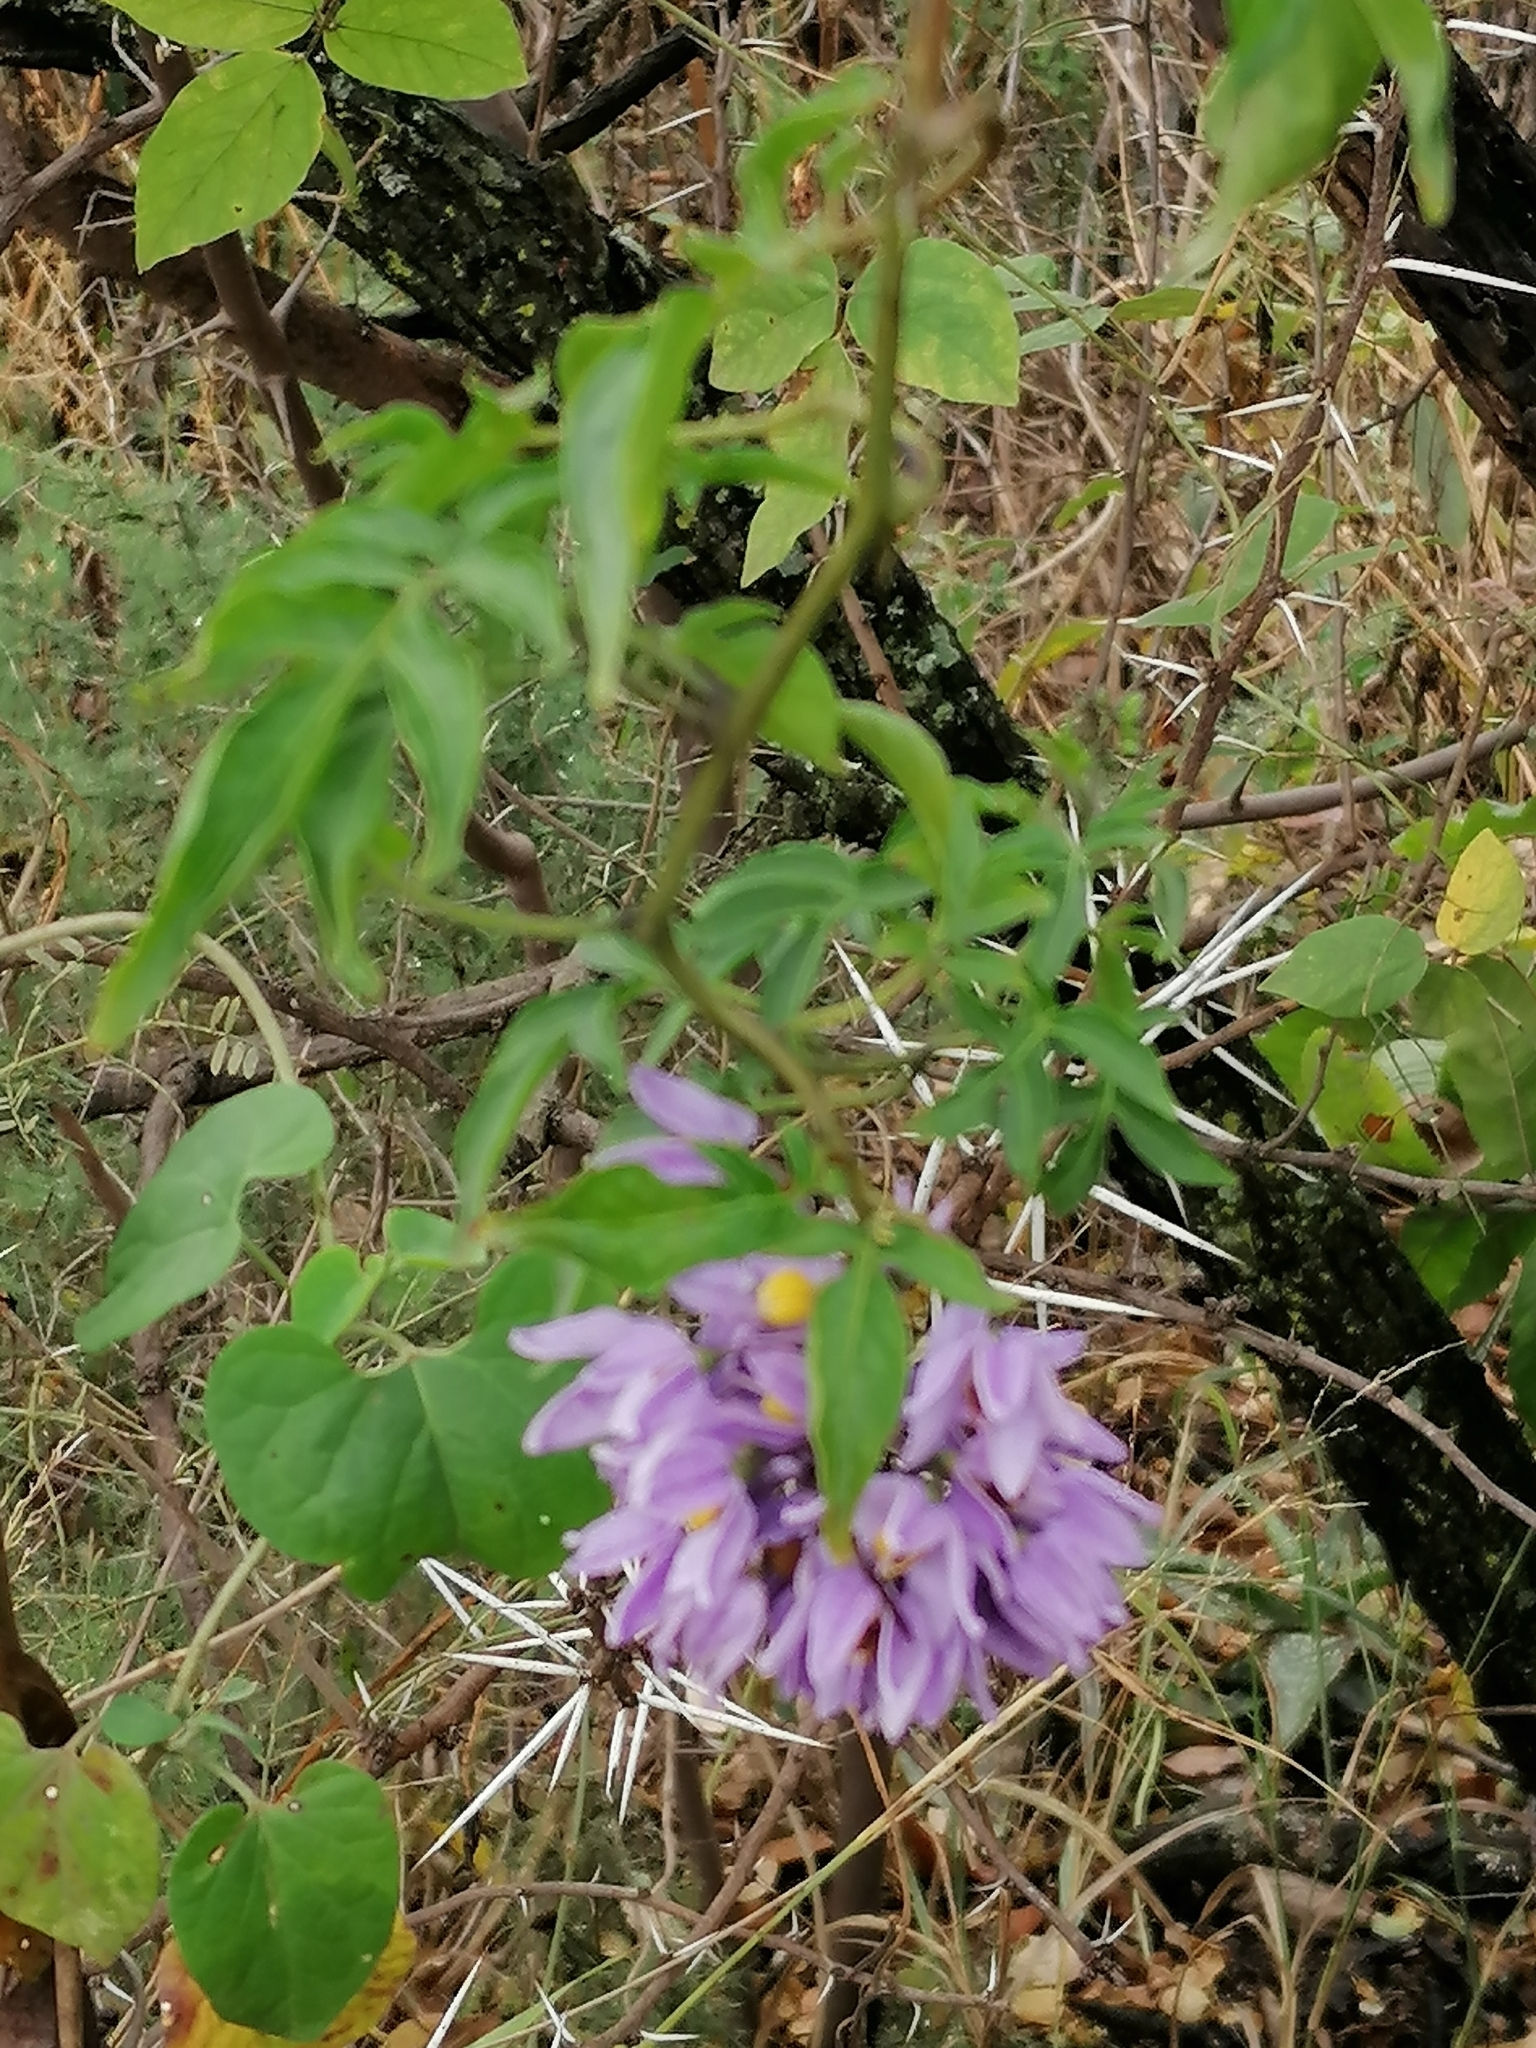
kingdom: Plantae
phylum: Tracheophyta
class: Magnoliopsida
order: Solanales
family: Solanaceae
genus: Solanum
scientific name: Solanum seaforthianum
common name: Brazilian nightshade
